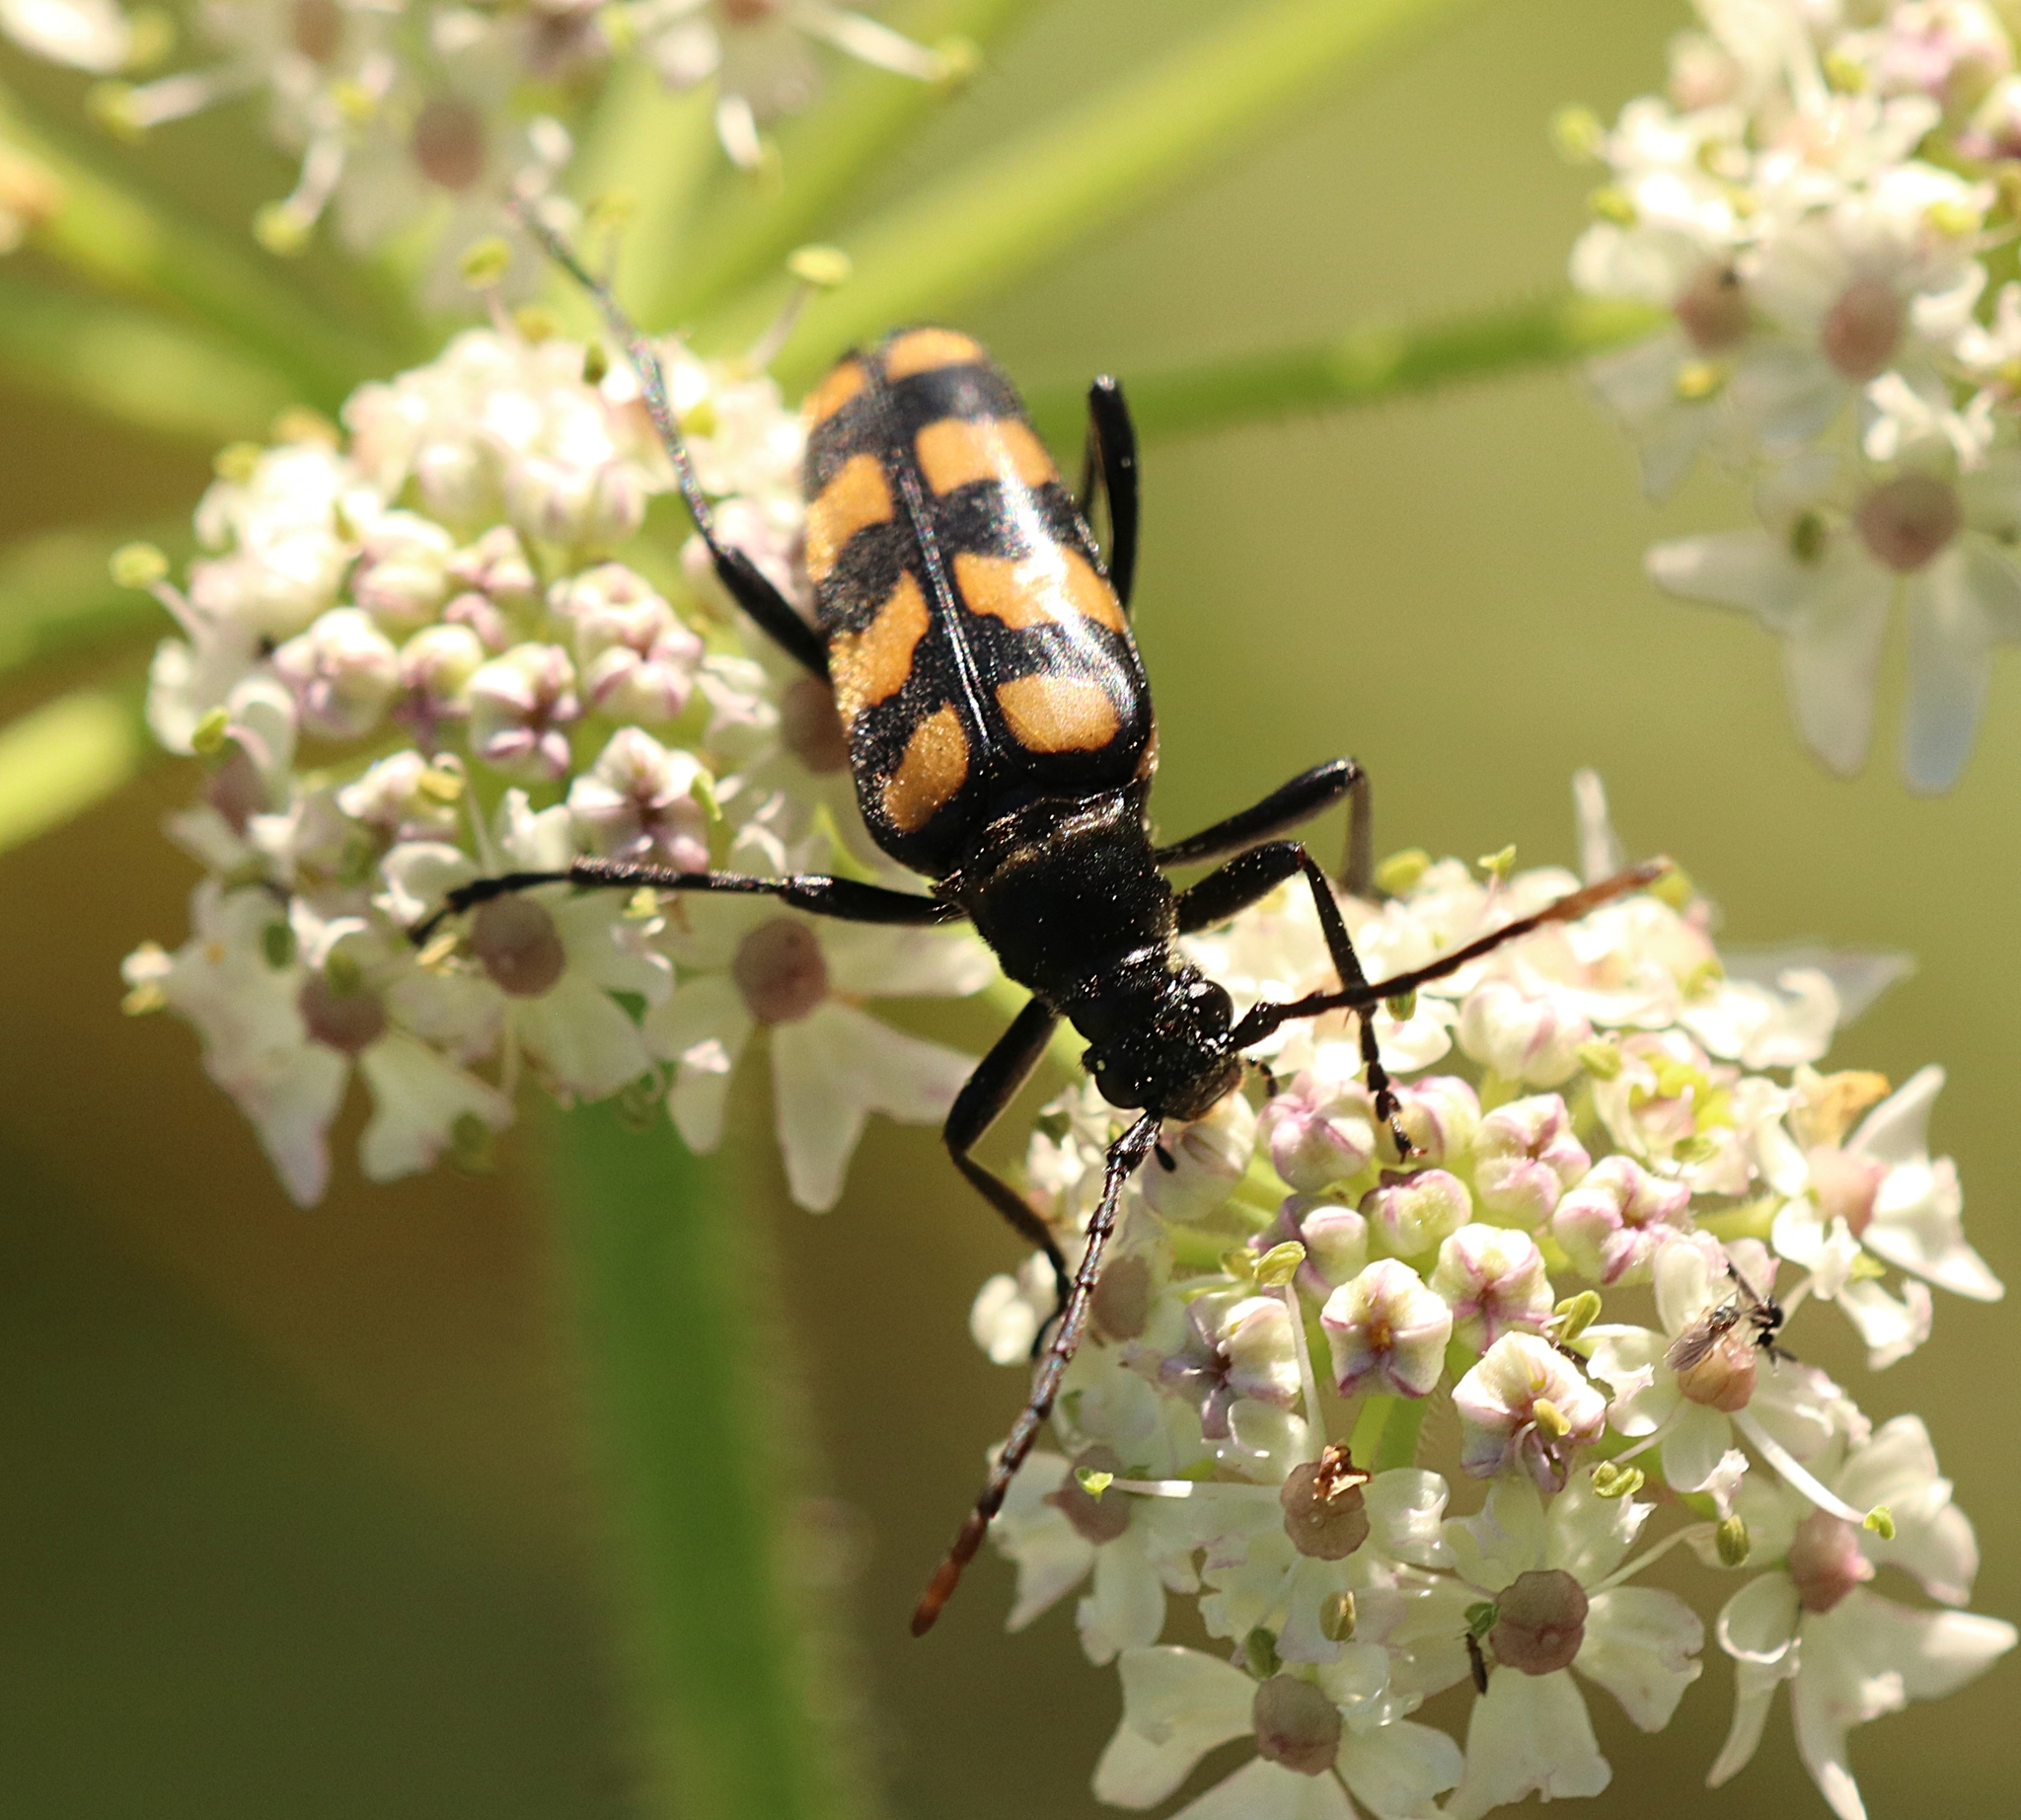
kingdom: Animalia
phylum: Arthropoda
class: Insecta
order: Coleoptera
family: Cerambycidae
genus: Leptura
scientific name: Leptura quadrifasciata
